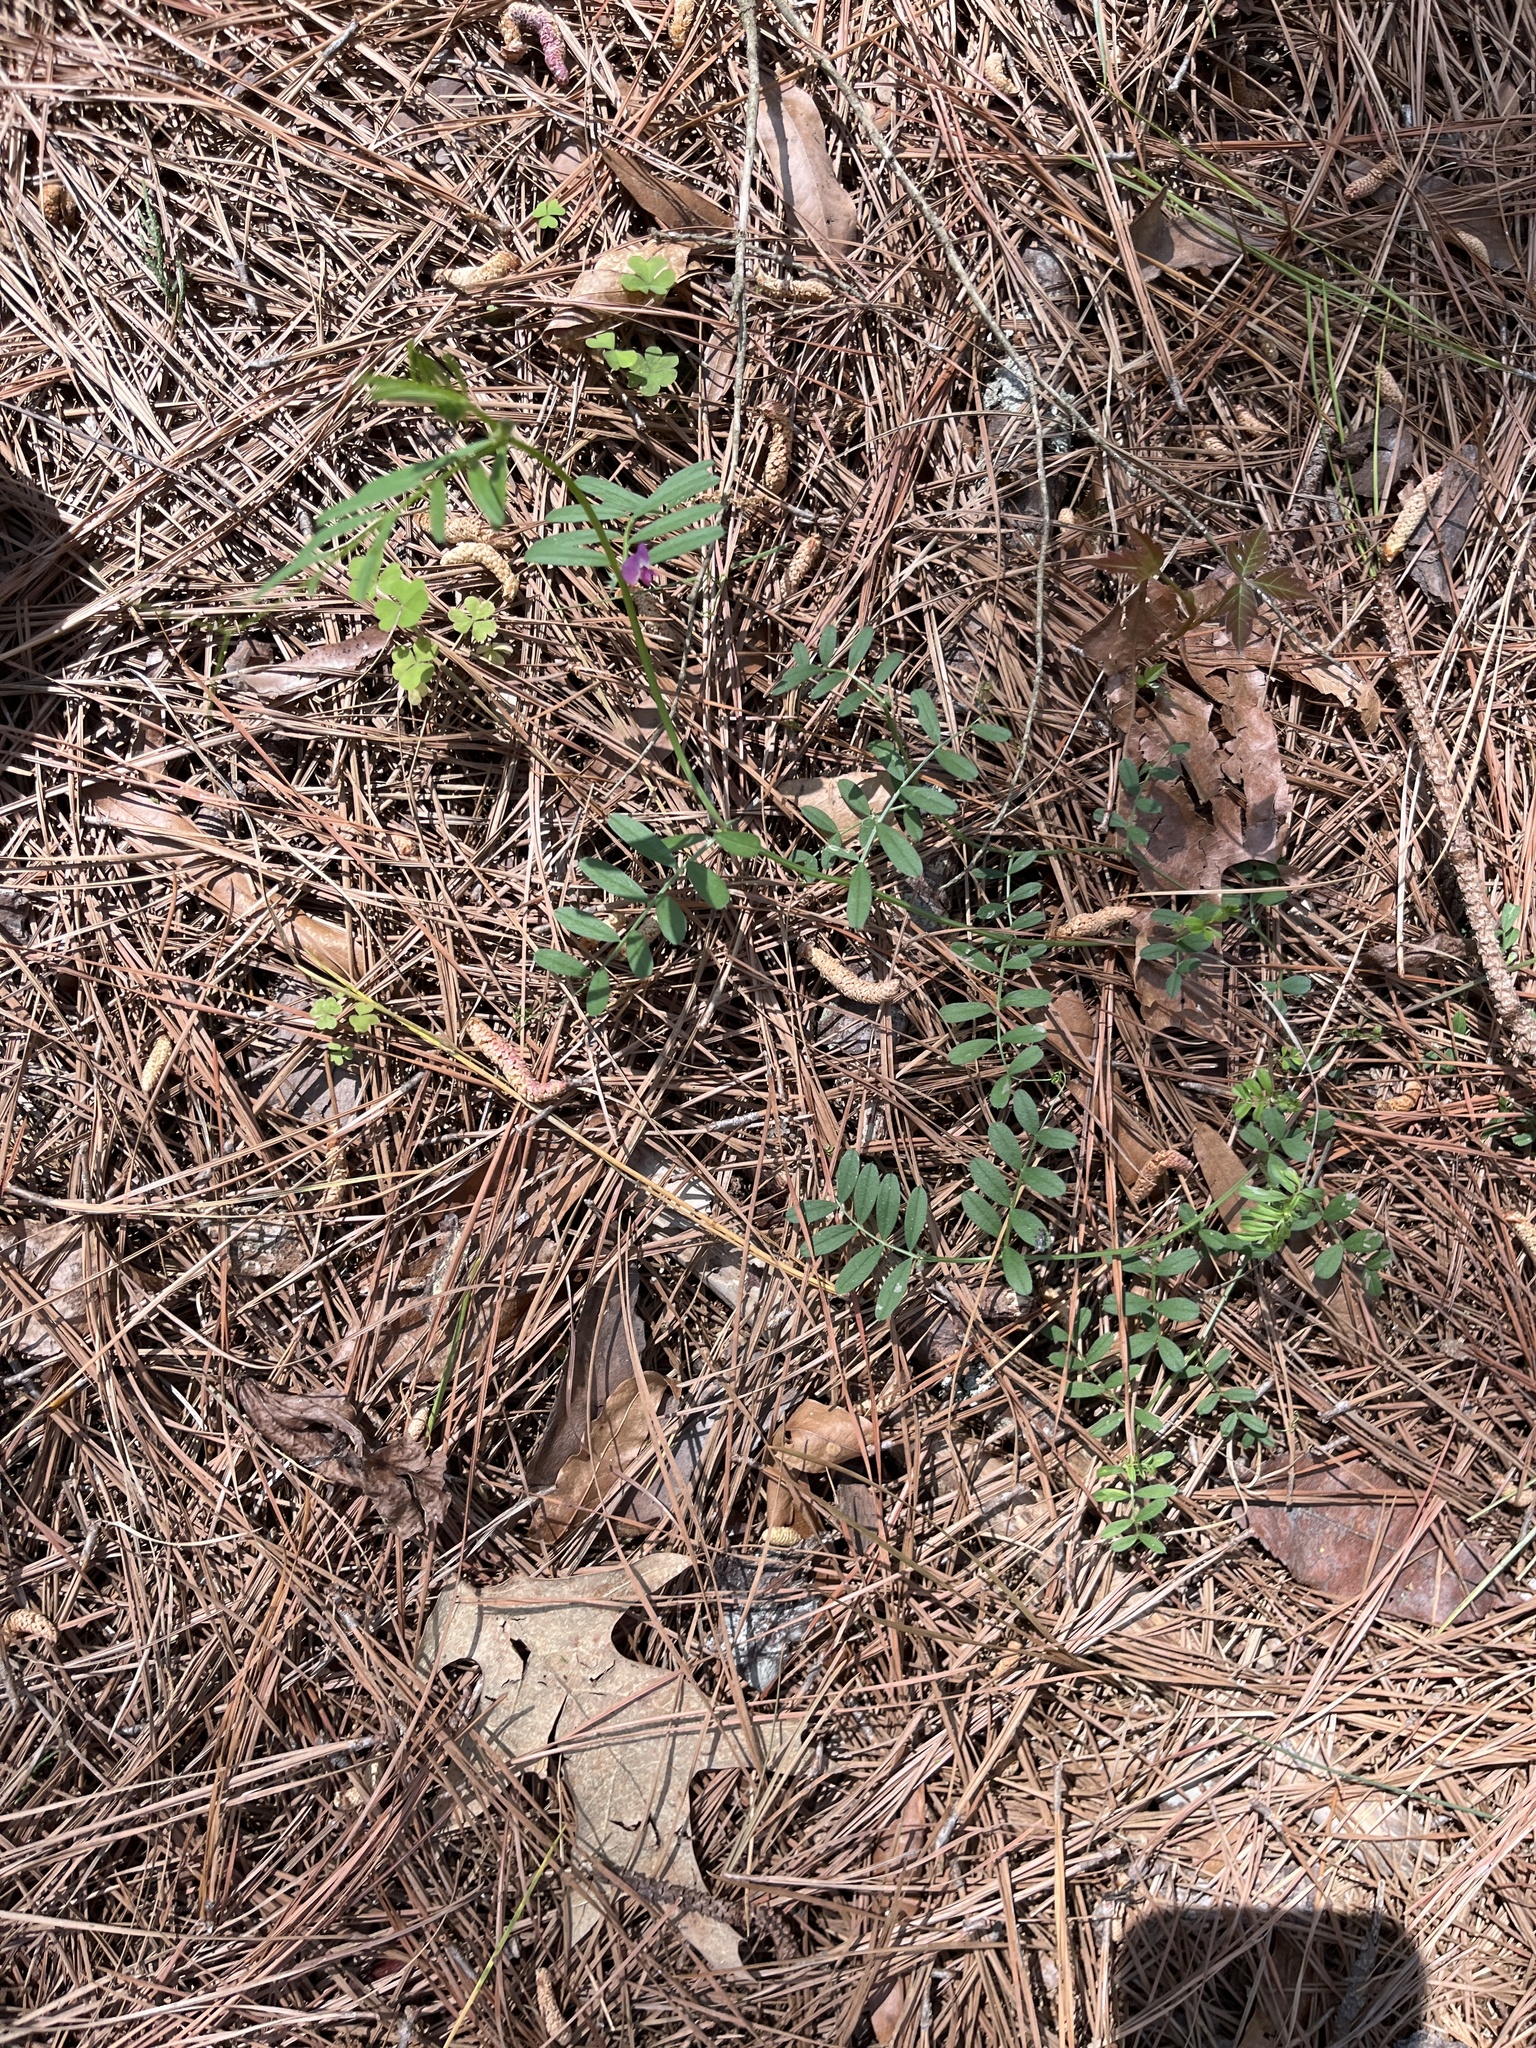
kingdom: Plantae
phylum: Tracheophyta
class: Magnoliopsida
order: Fabales
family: Fabaceae
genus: Vicia
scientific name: Vicia sativa
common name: Garden vetch
